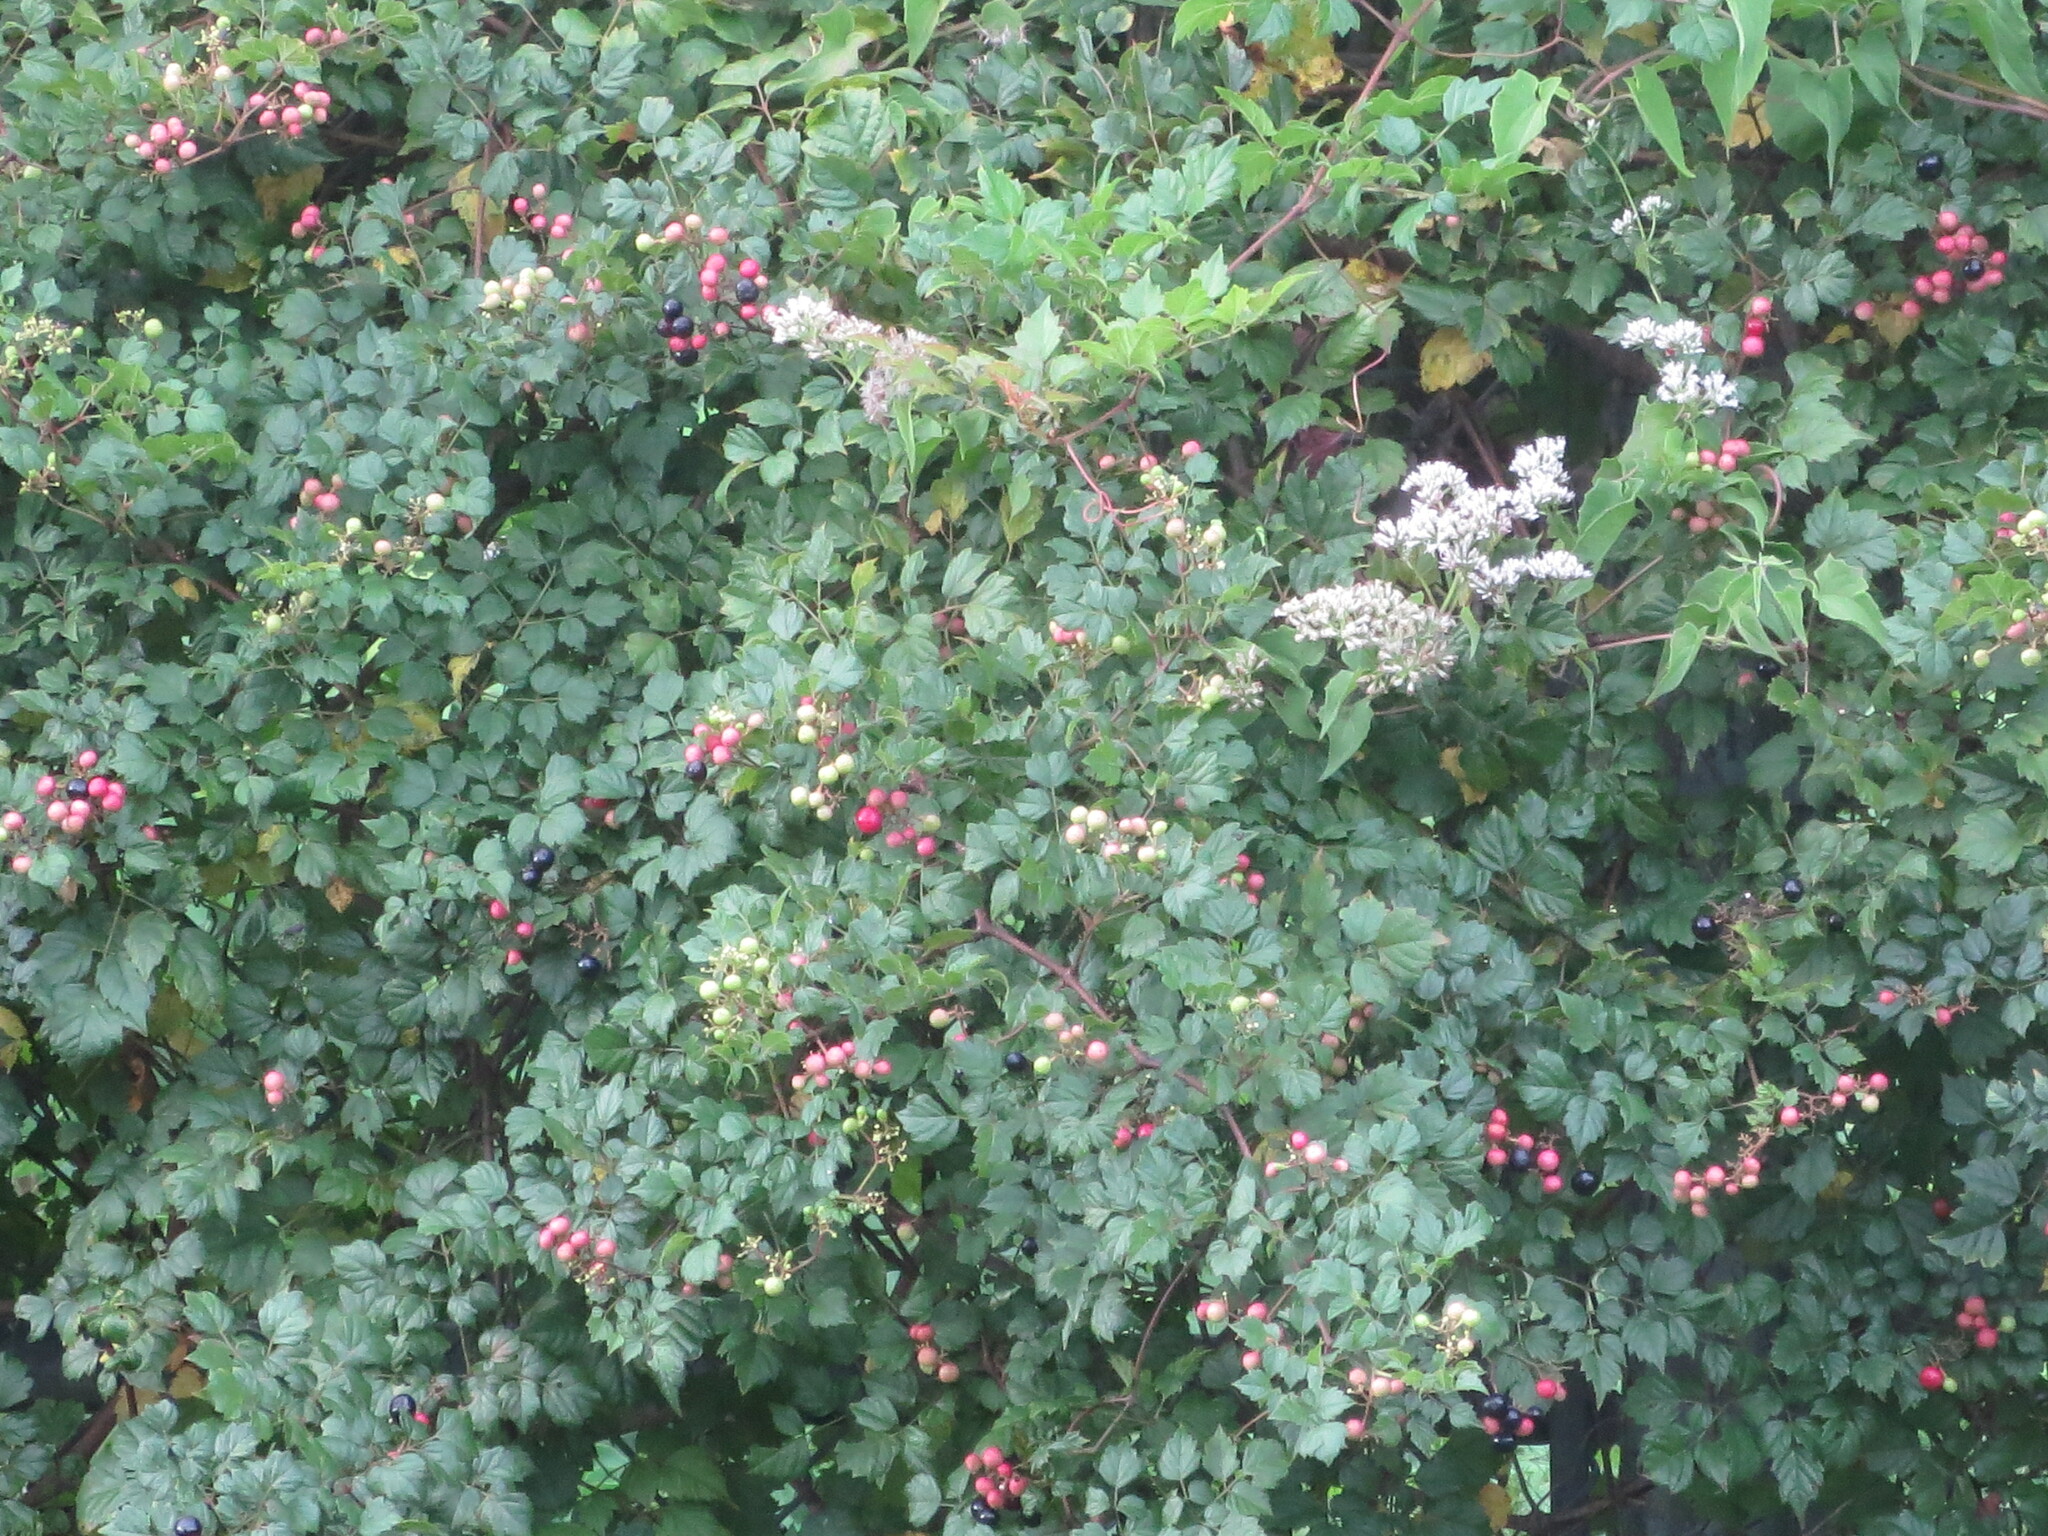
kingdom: Plantae
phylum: Tracheophyta
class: Magnoliopsida
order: Vitales
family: Vitaceae
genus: Nekemias
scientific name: Nekemias arborea
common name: Peppervine
